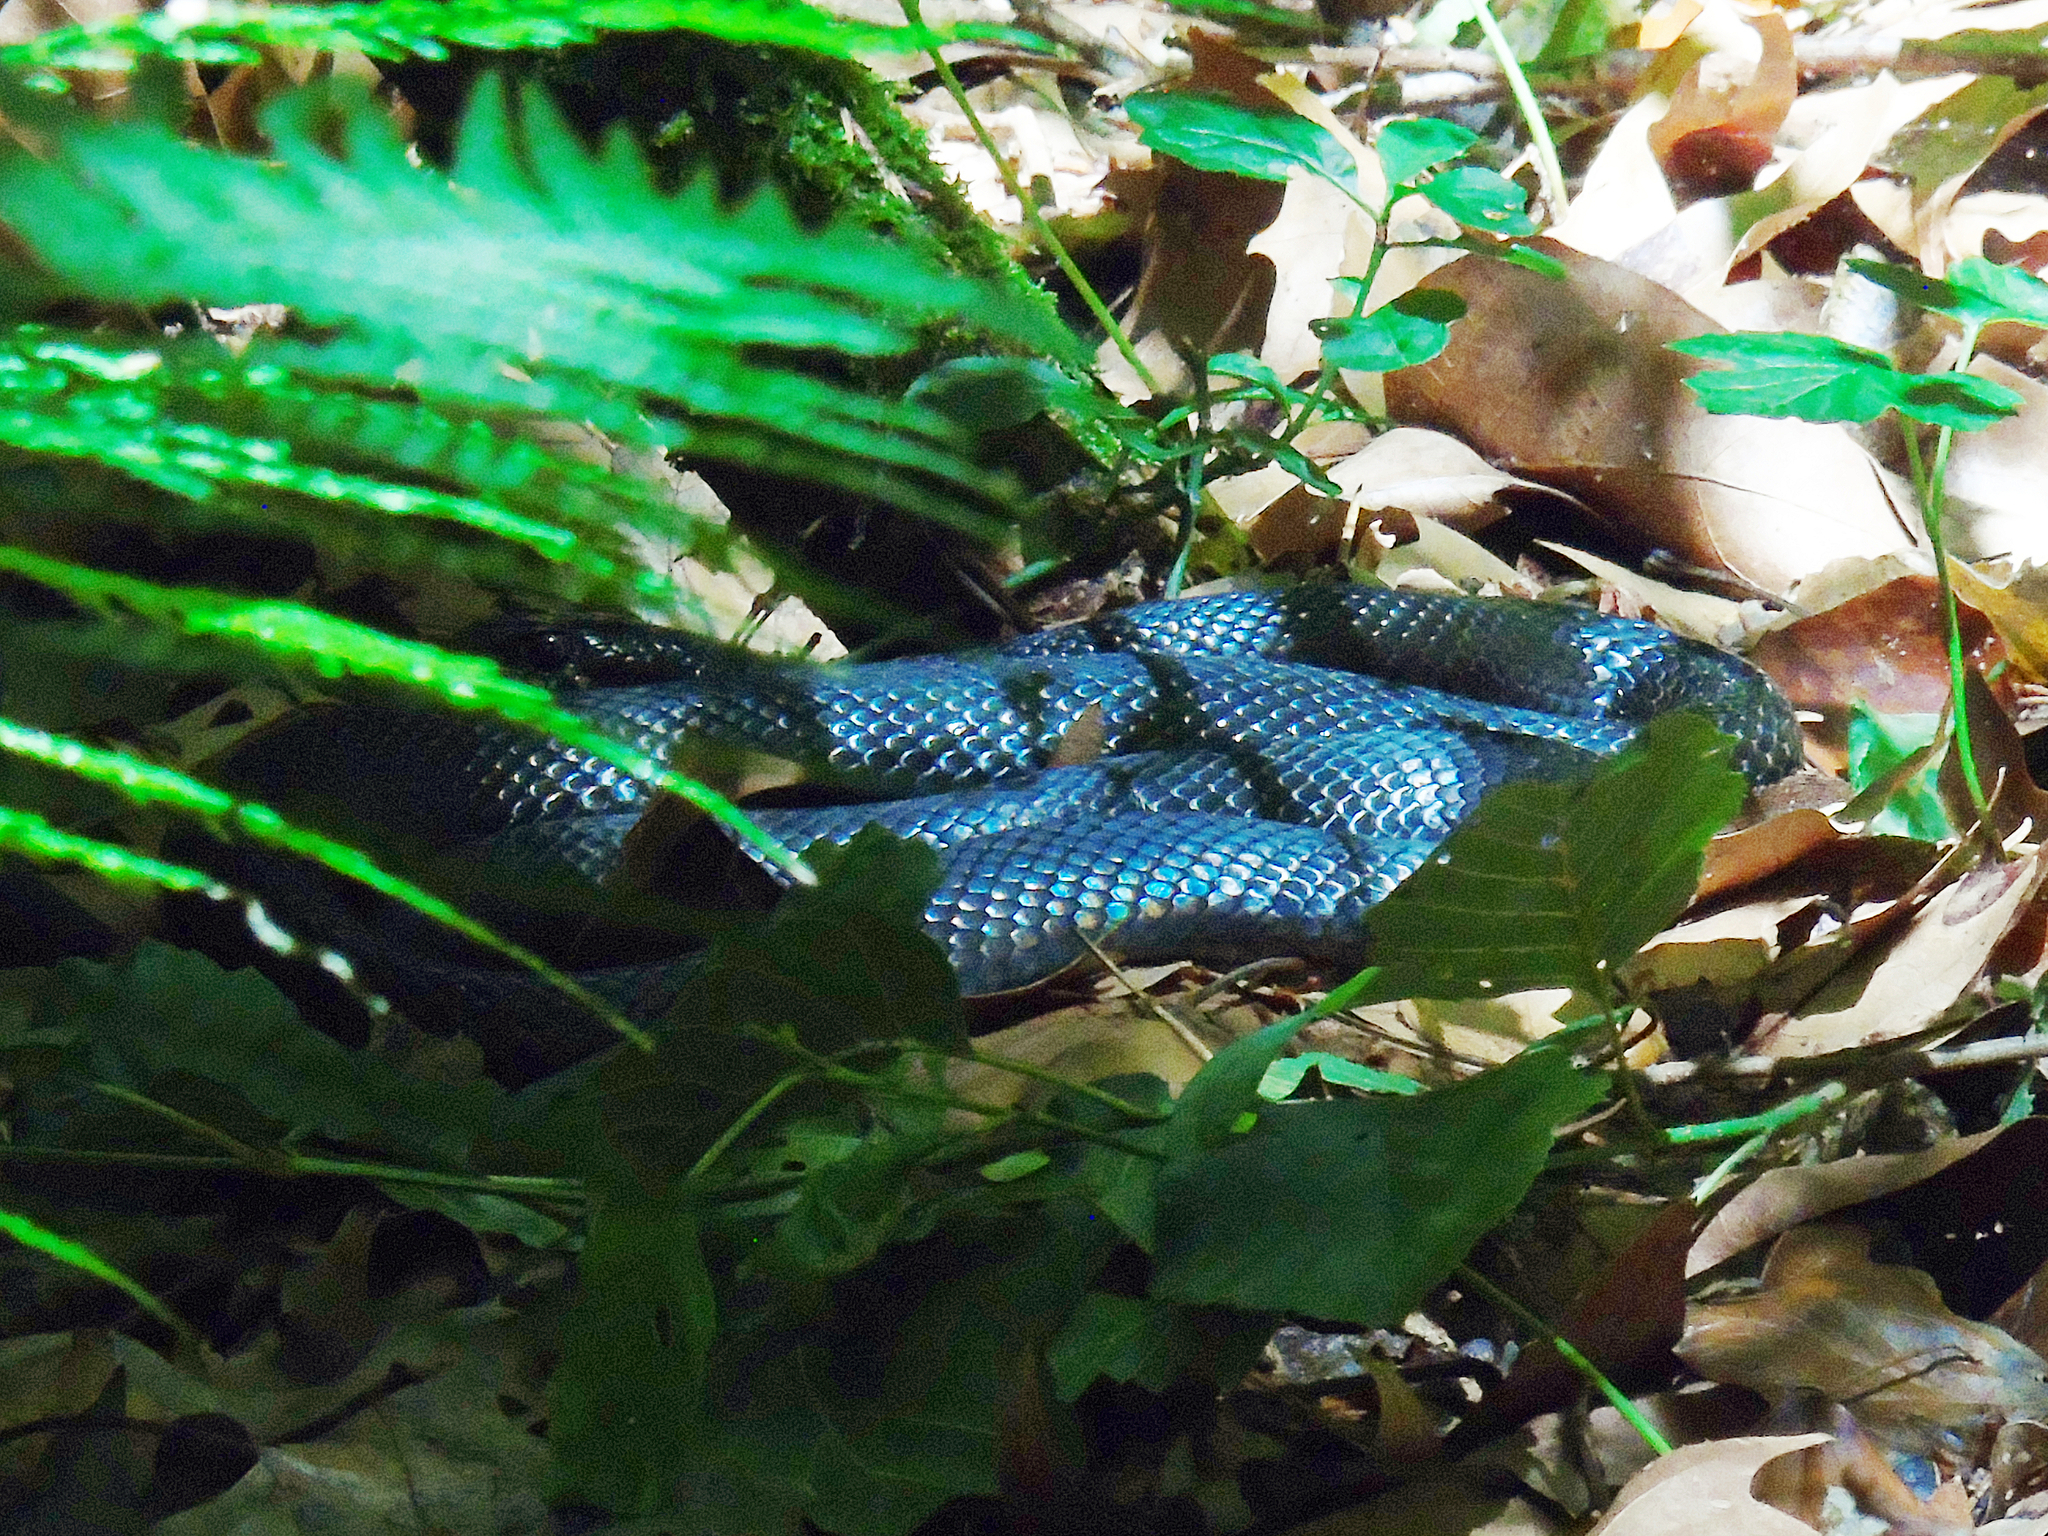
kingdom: Animalia
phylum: Chordata
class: Squamata
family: Colubridae
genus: Hierophis
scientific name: Hierophis viridiflavus
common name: Green whip snake
